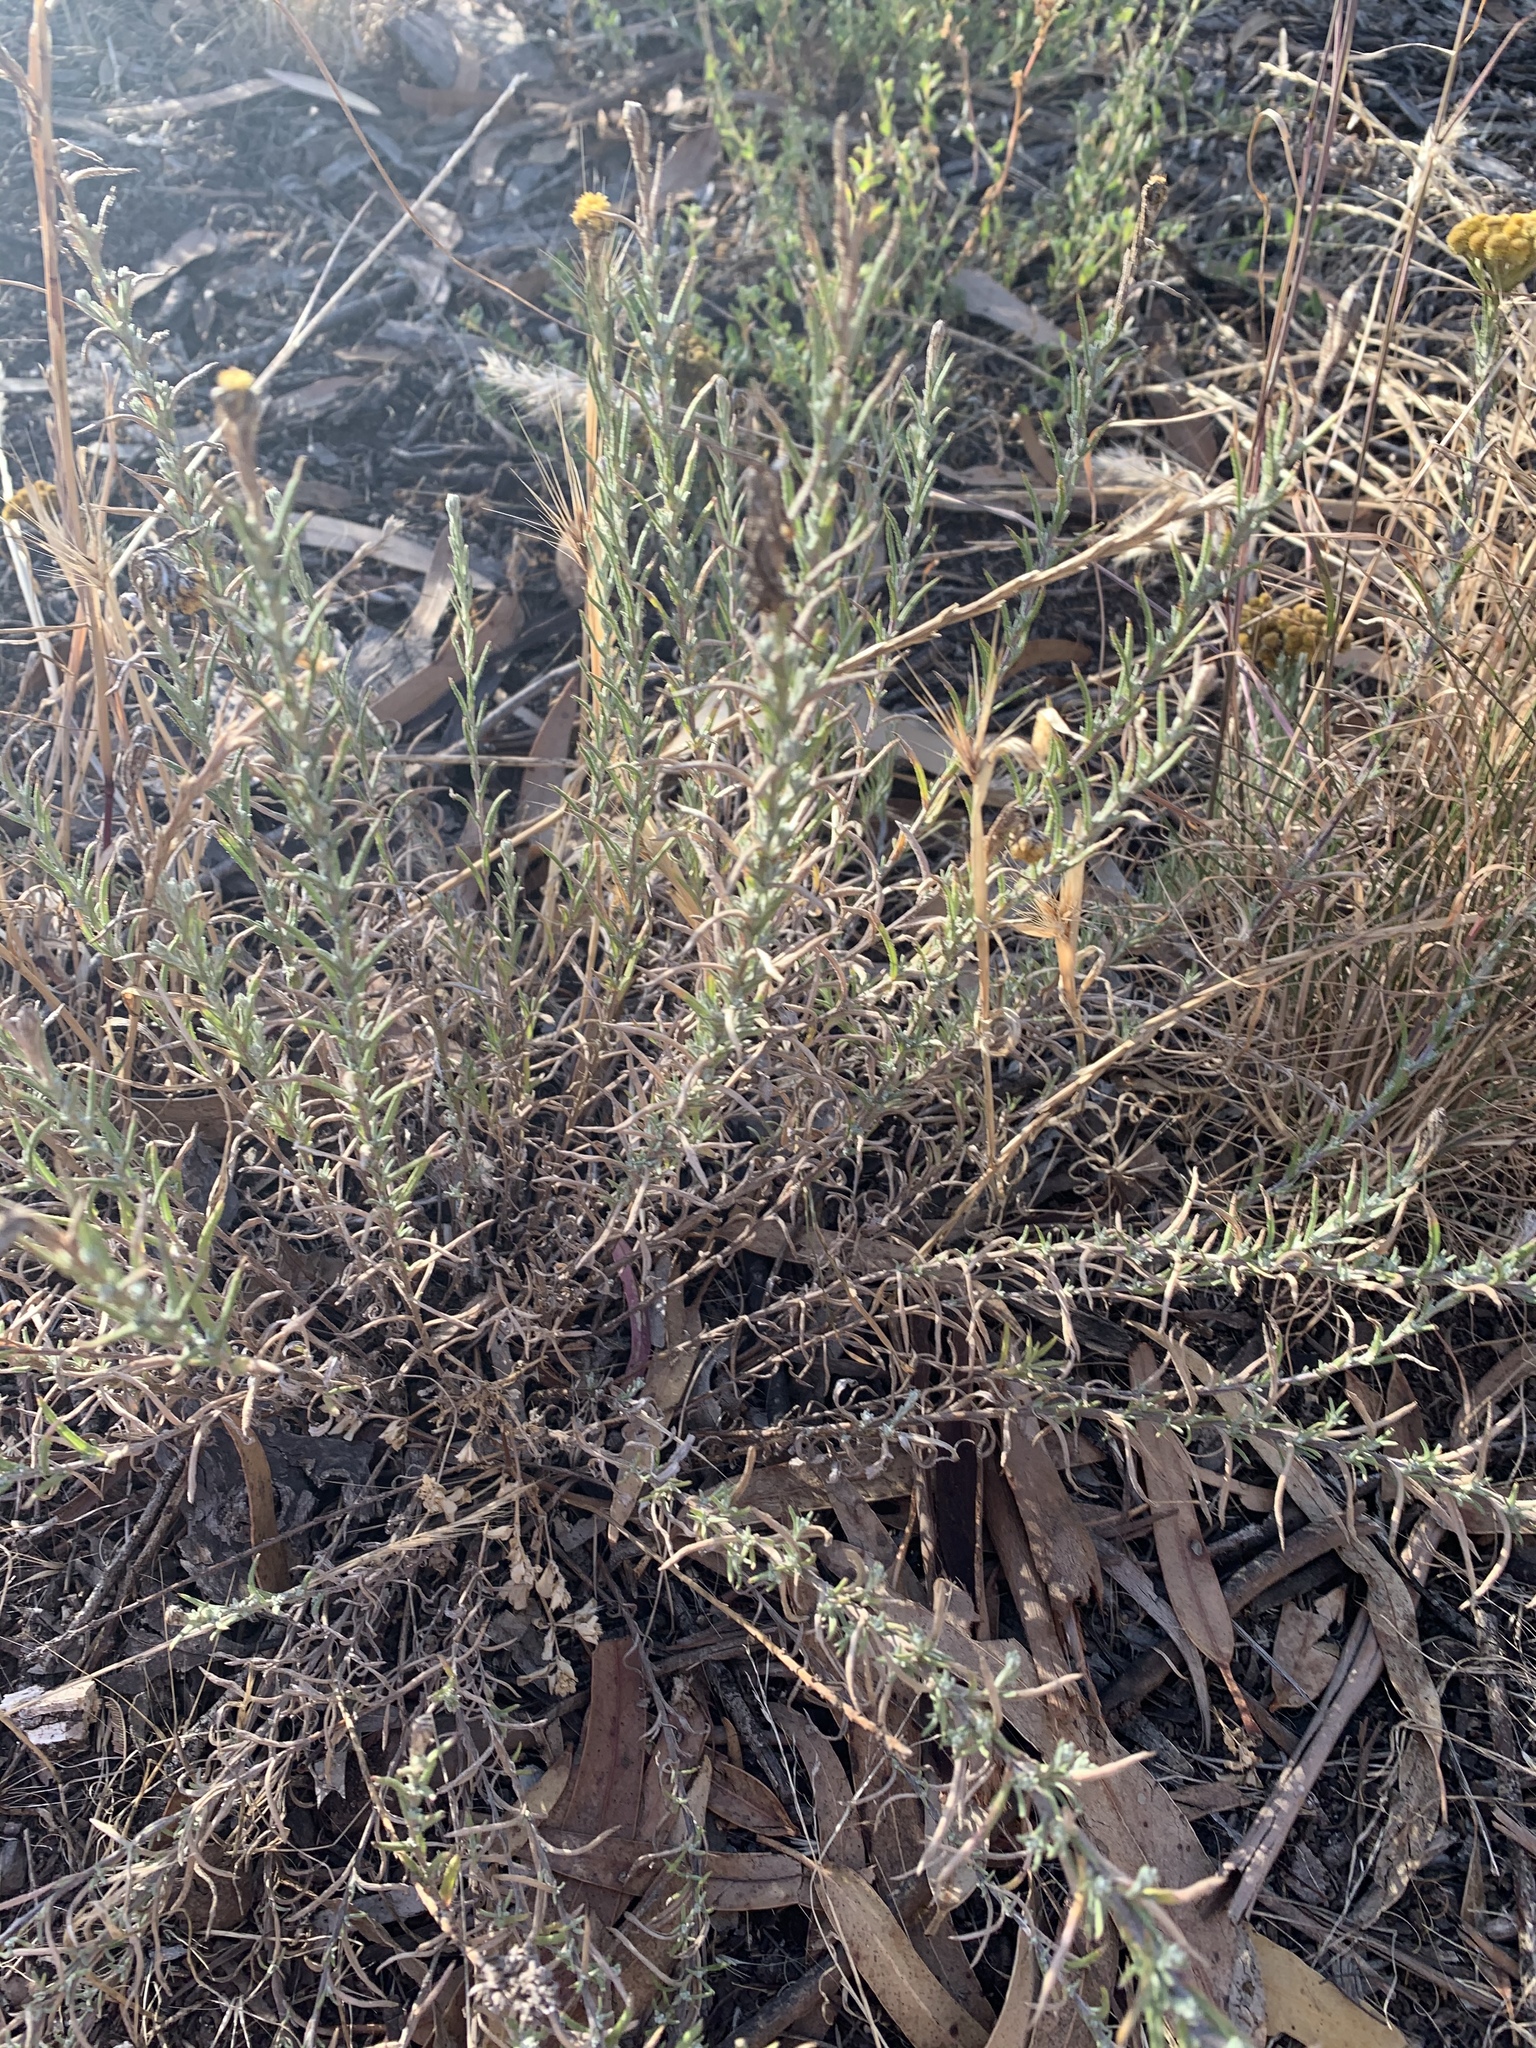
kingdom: Plantae
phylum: Tracheophyta
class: Magnoliopsida
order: Asterales
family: Asteraceae
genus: Chrysocephalum
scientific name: Chrysocephalum semipapposum
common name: Clustered everlasting
